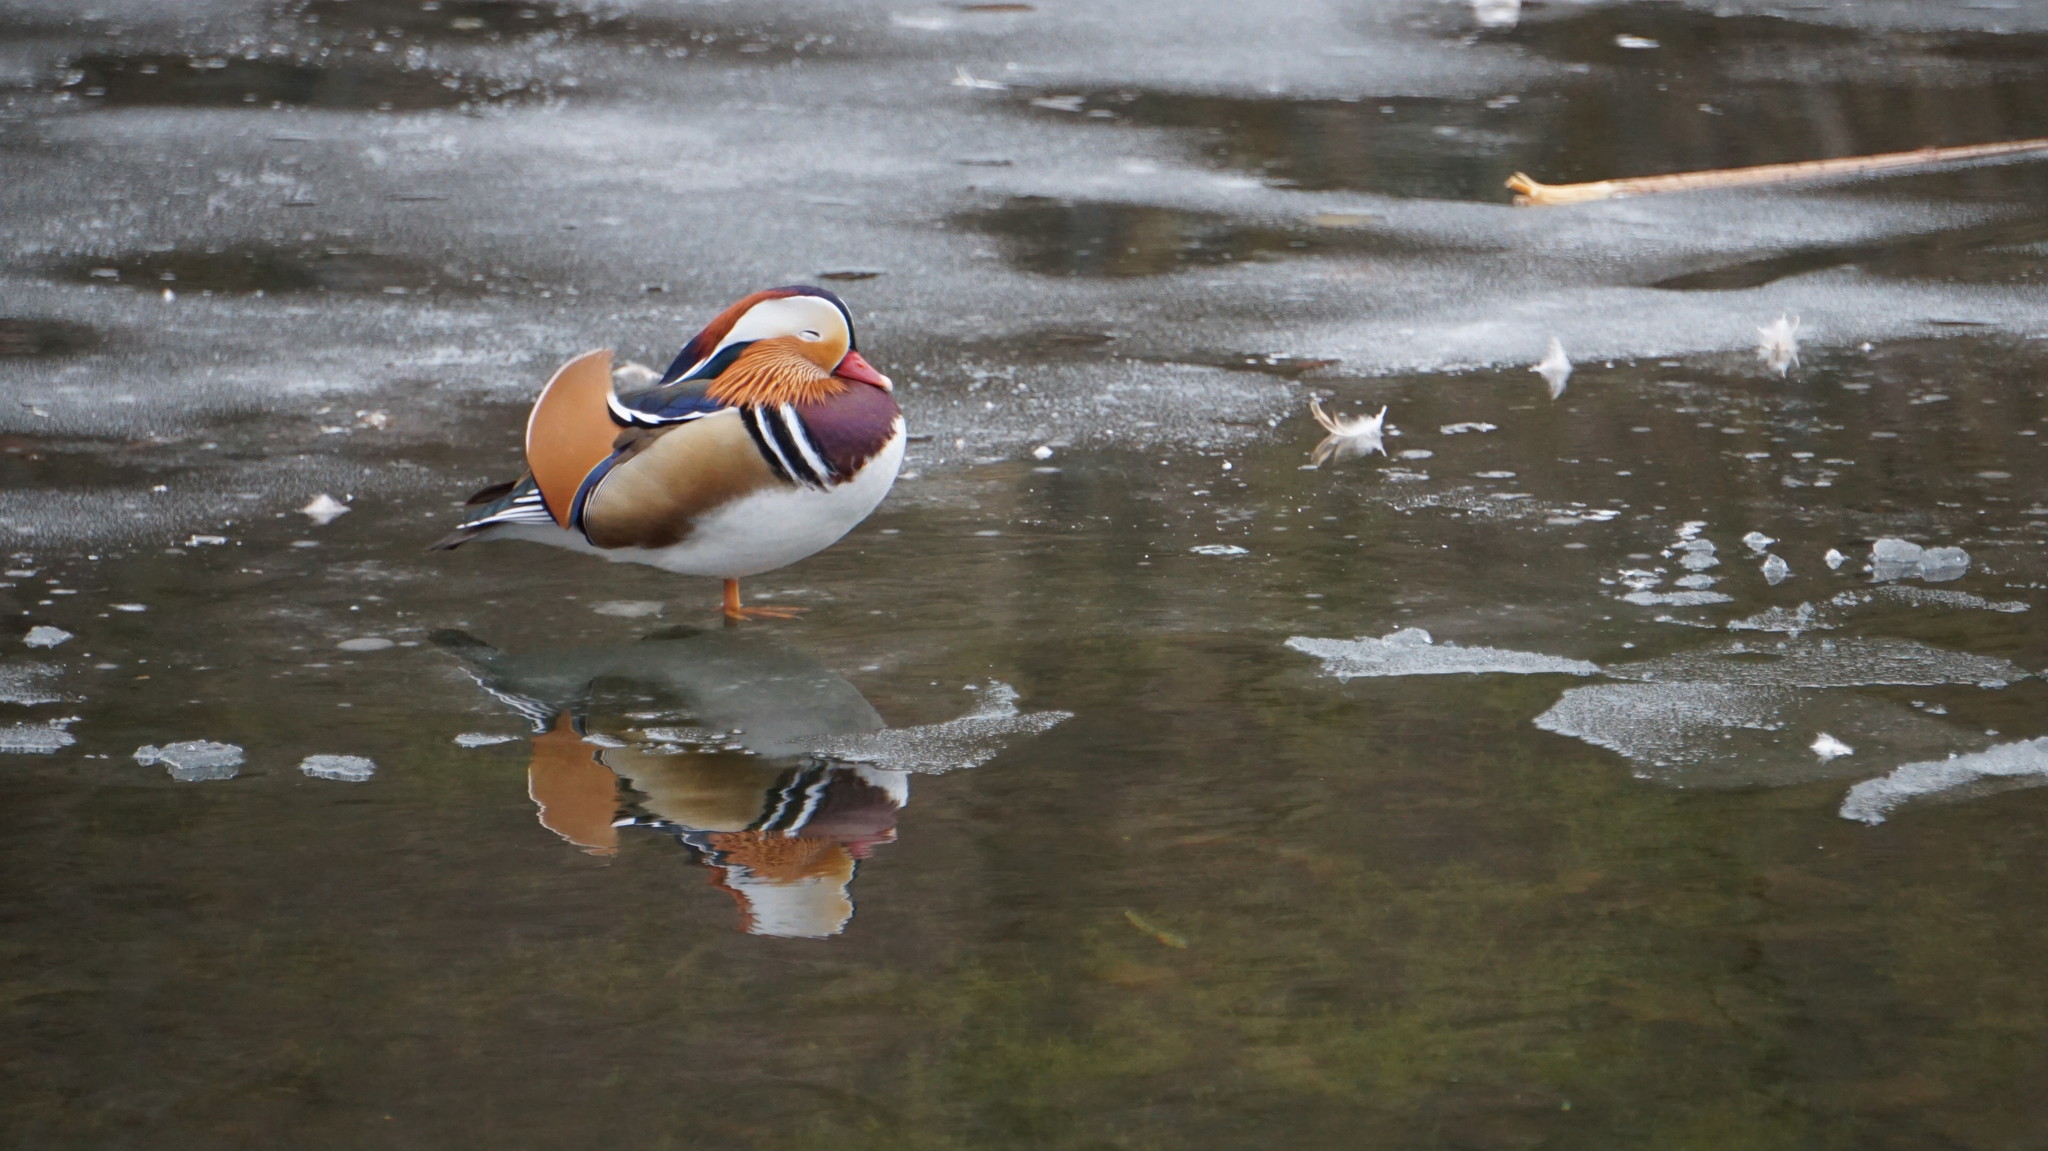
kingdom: Animalia
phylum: Chordata
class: Aves
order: Anseriformes
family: Anatidae
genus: Aix
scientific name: Aix galericulata
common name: Mandarin duck
